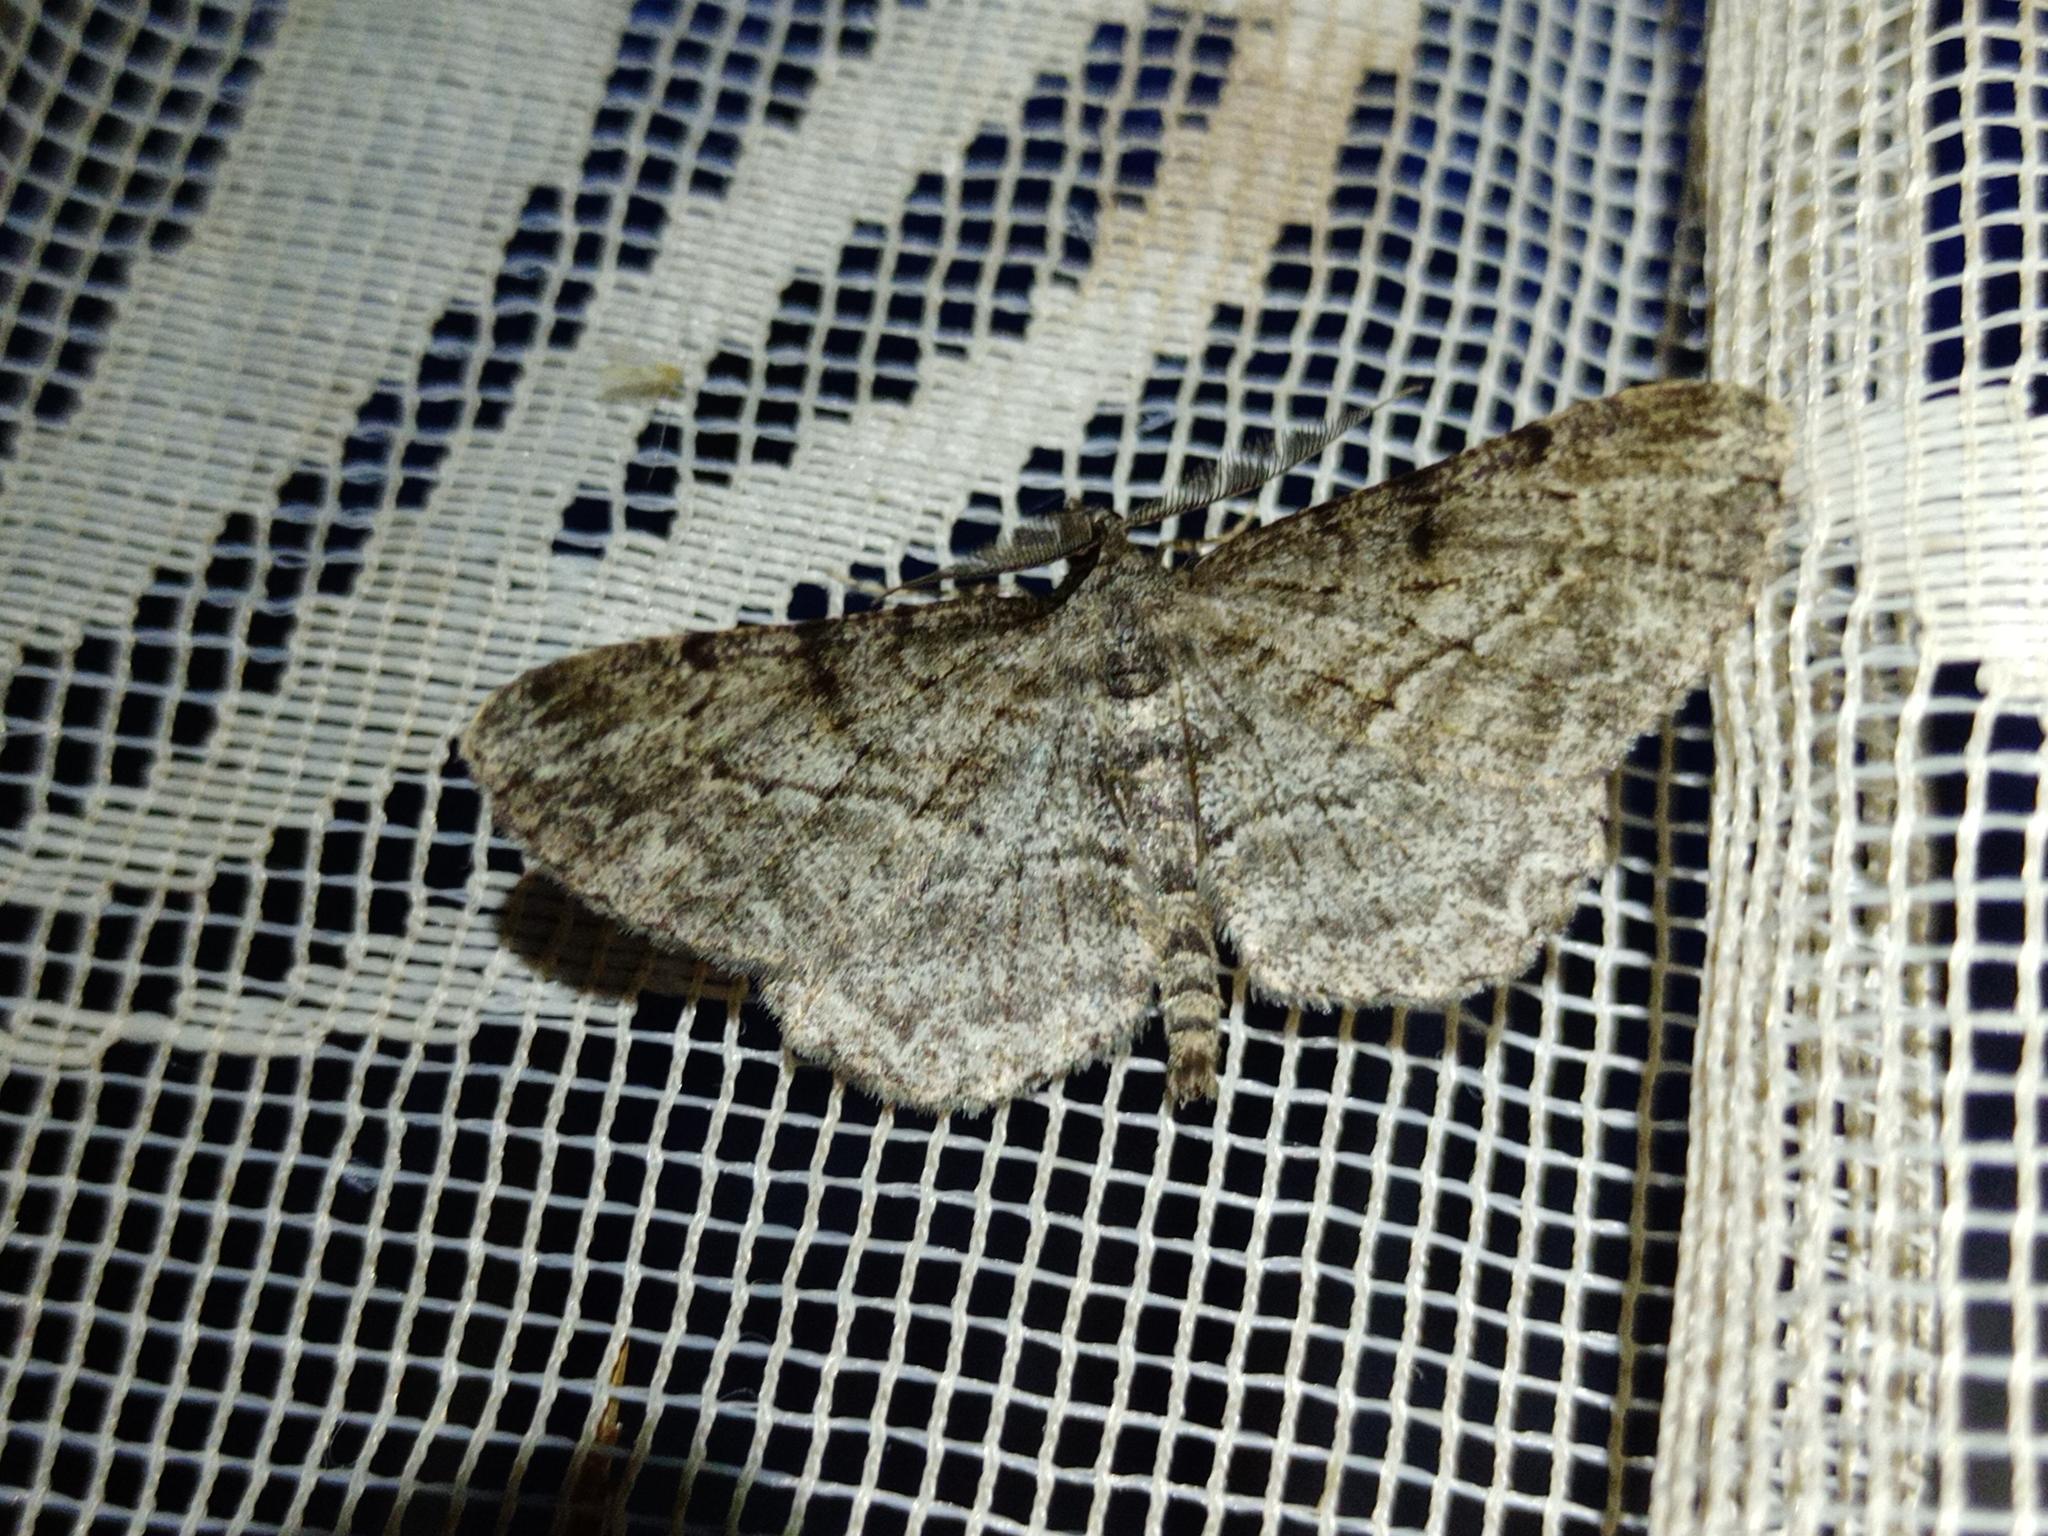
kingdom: Animalia
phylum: Arthropoda
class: Insecta
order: Lepidoptera
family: Geometridae
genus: Peribatodes
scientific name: Peribatodes rhomboidaria
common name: Willow beauty
